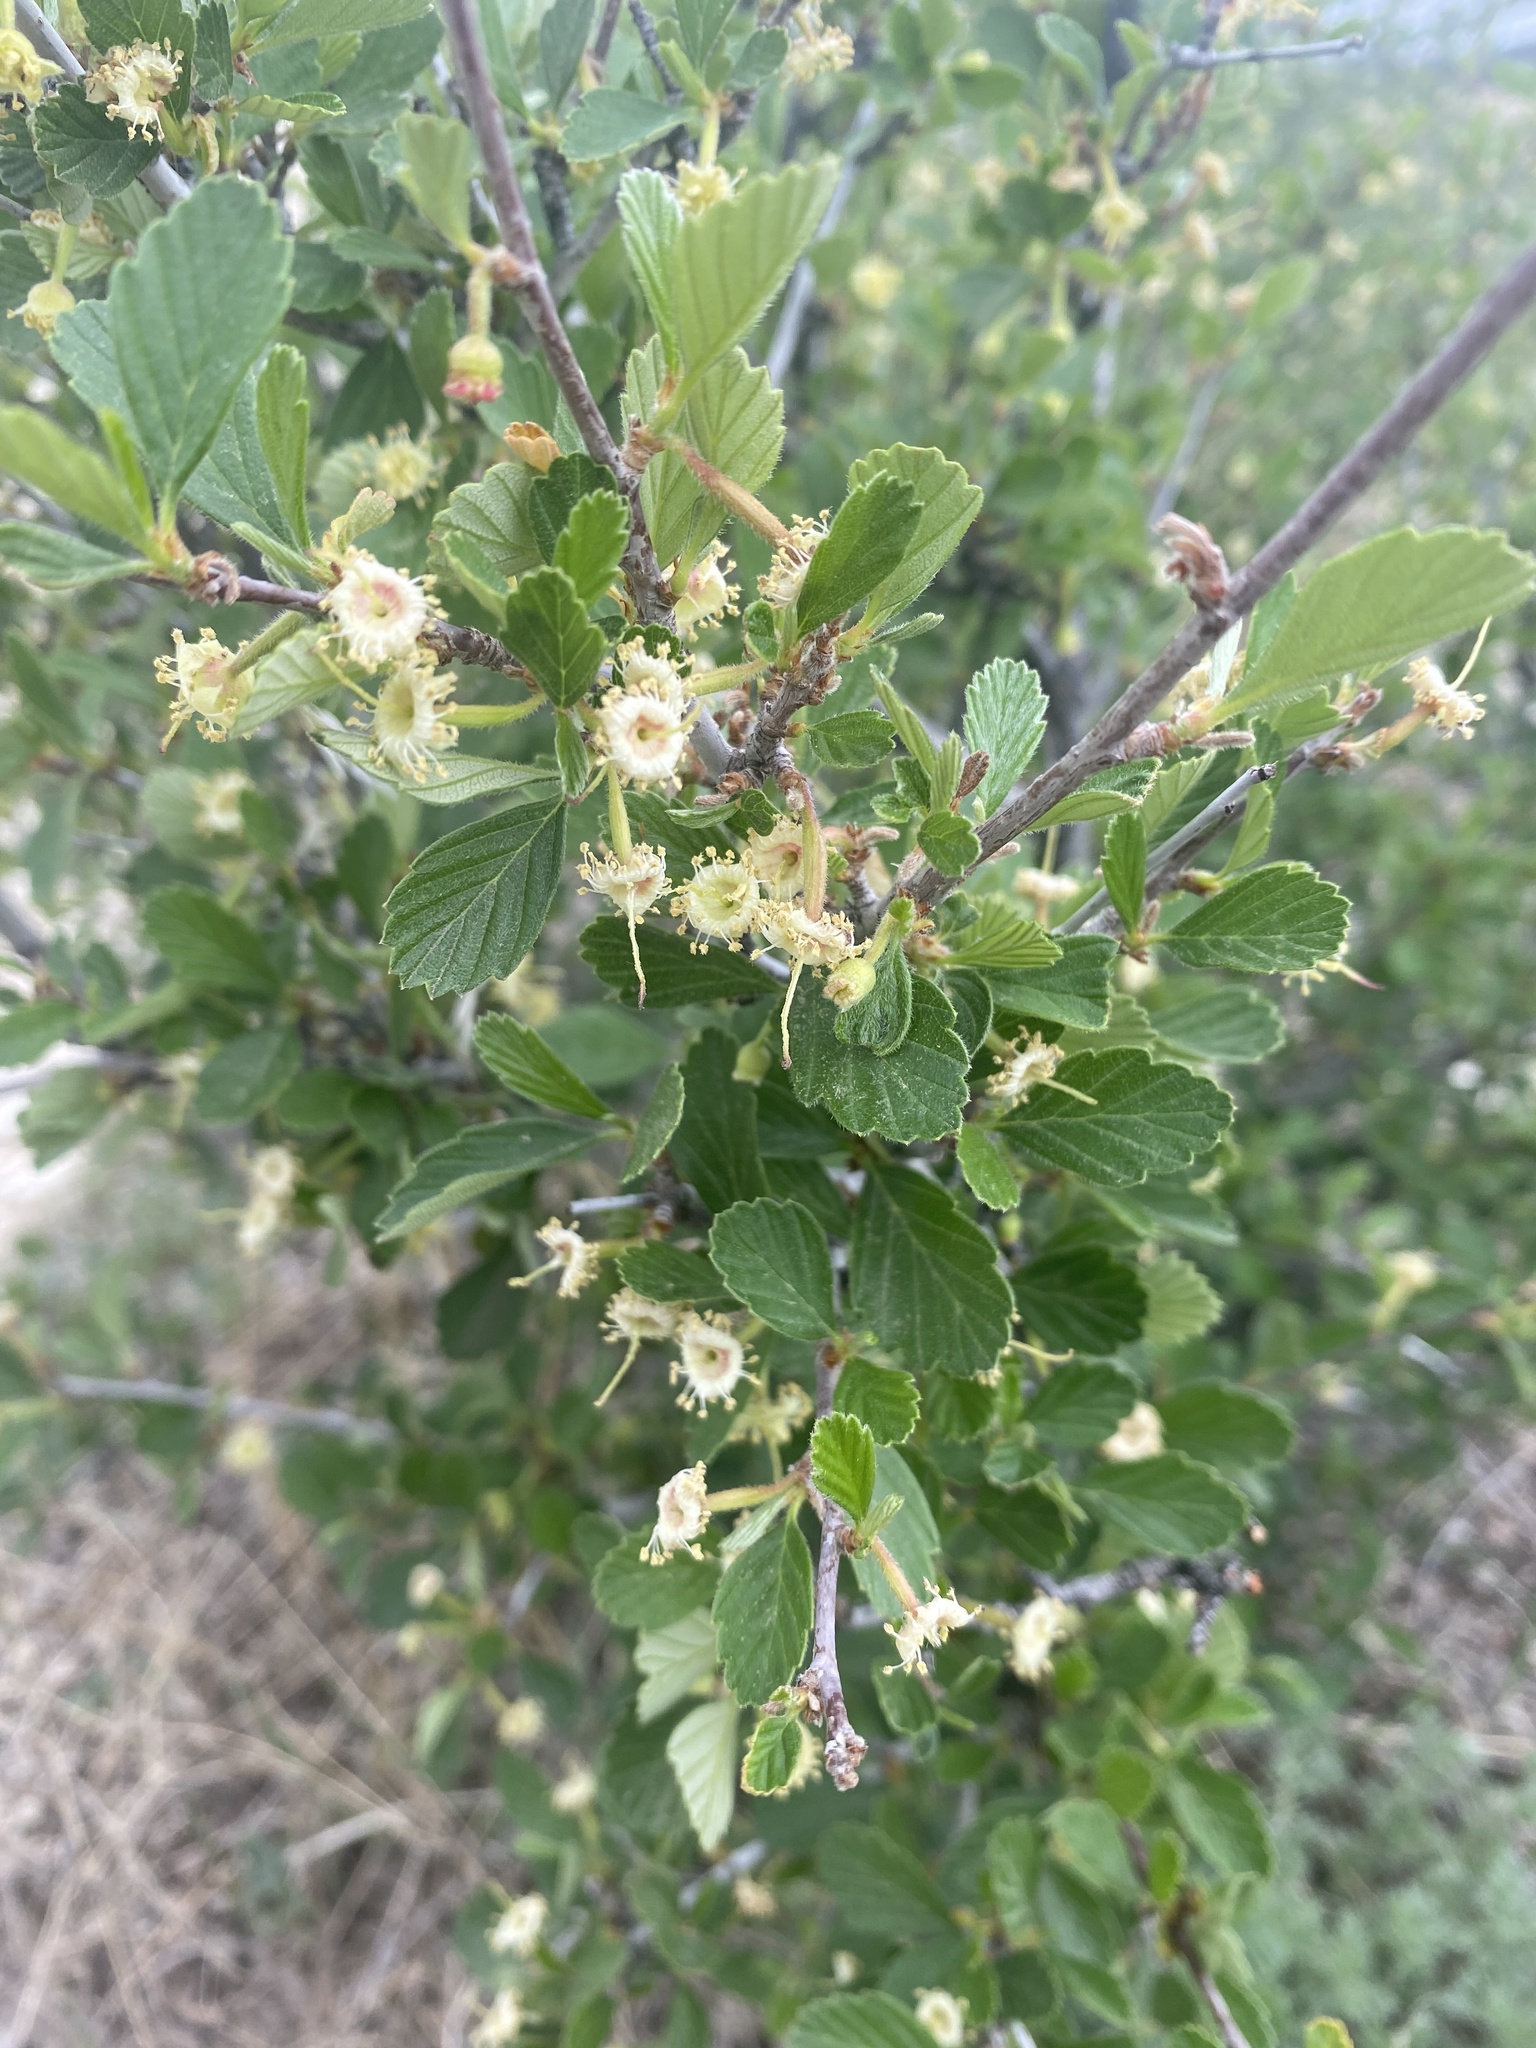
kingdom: Plantae
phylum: Tracheophyta
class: Magnoliopsida
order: Rosales
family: Rosaceae
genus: Cercocarpus
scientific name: Cercocarpus montanus
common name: Alder-leaf cercocarpus
